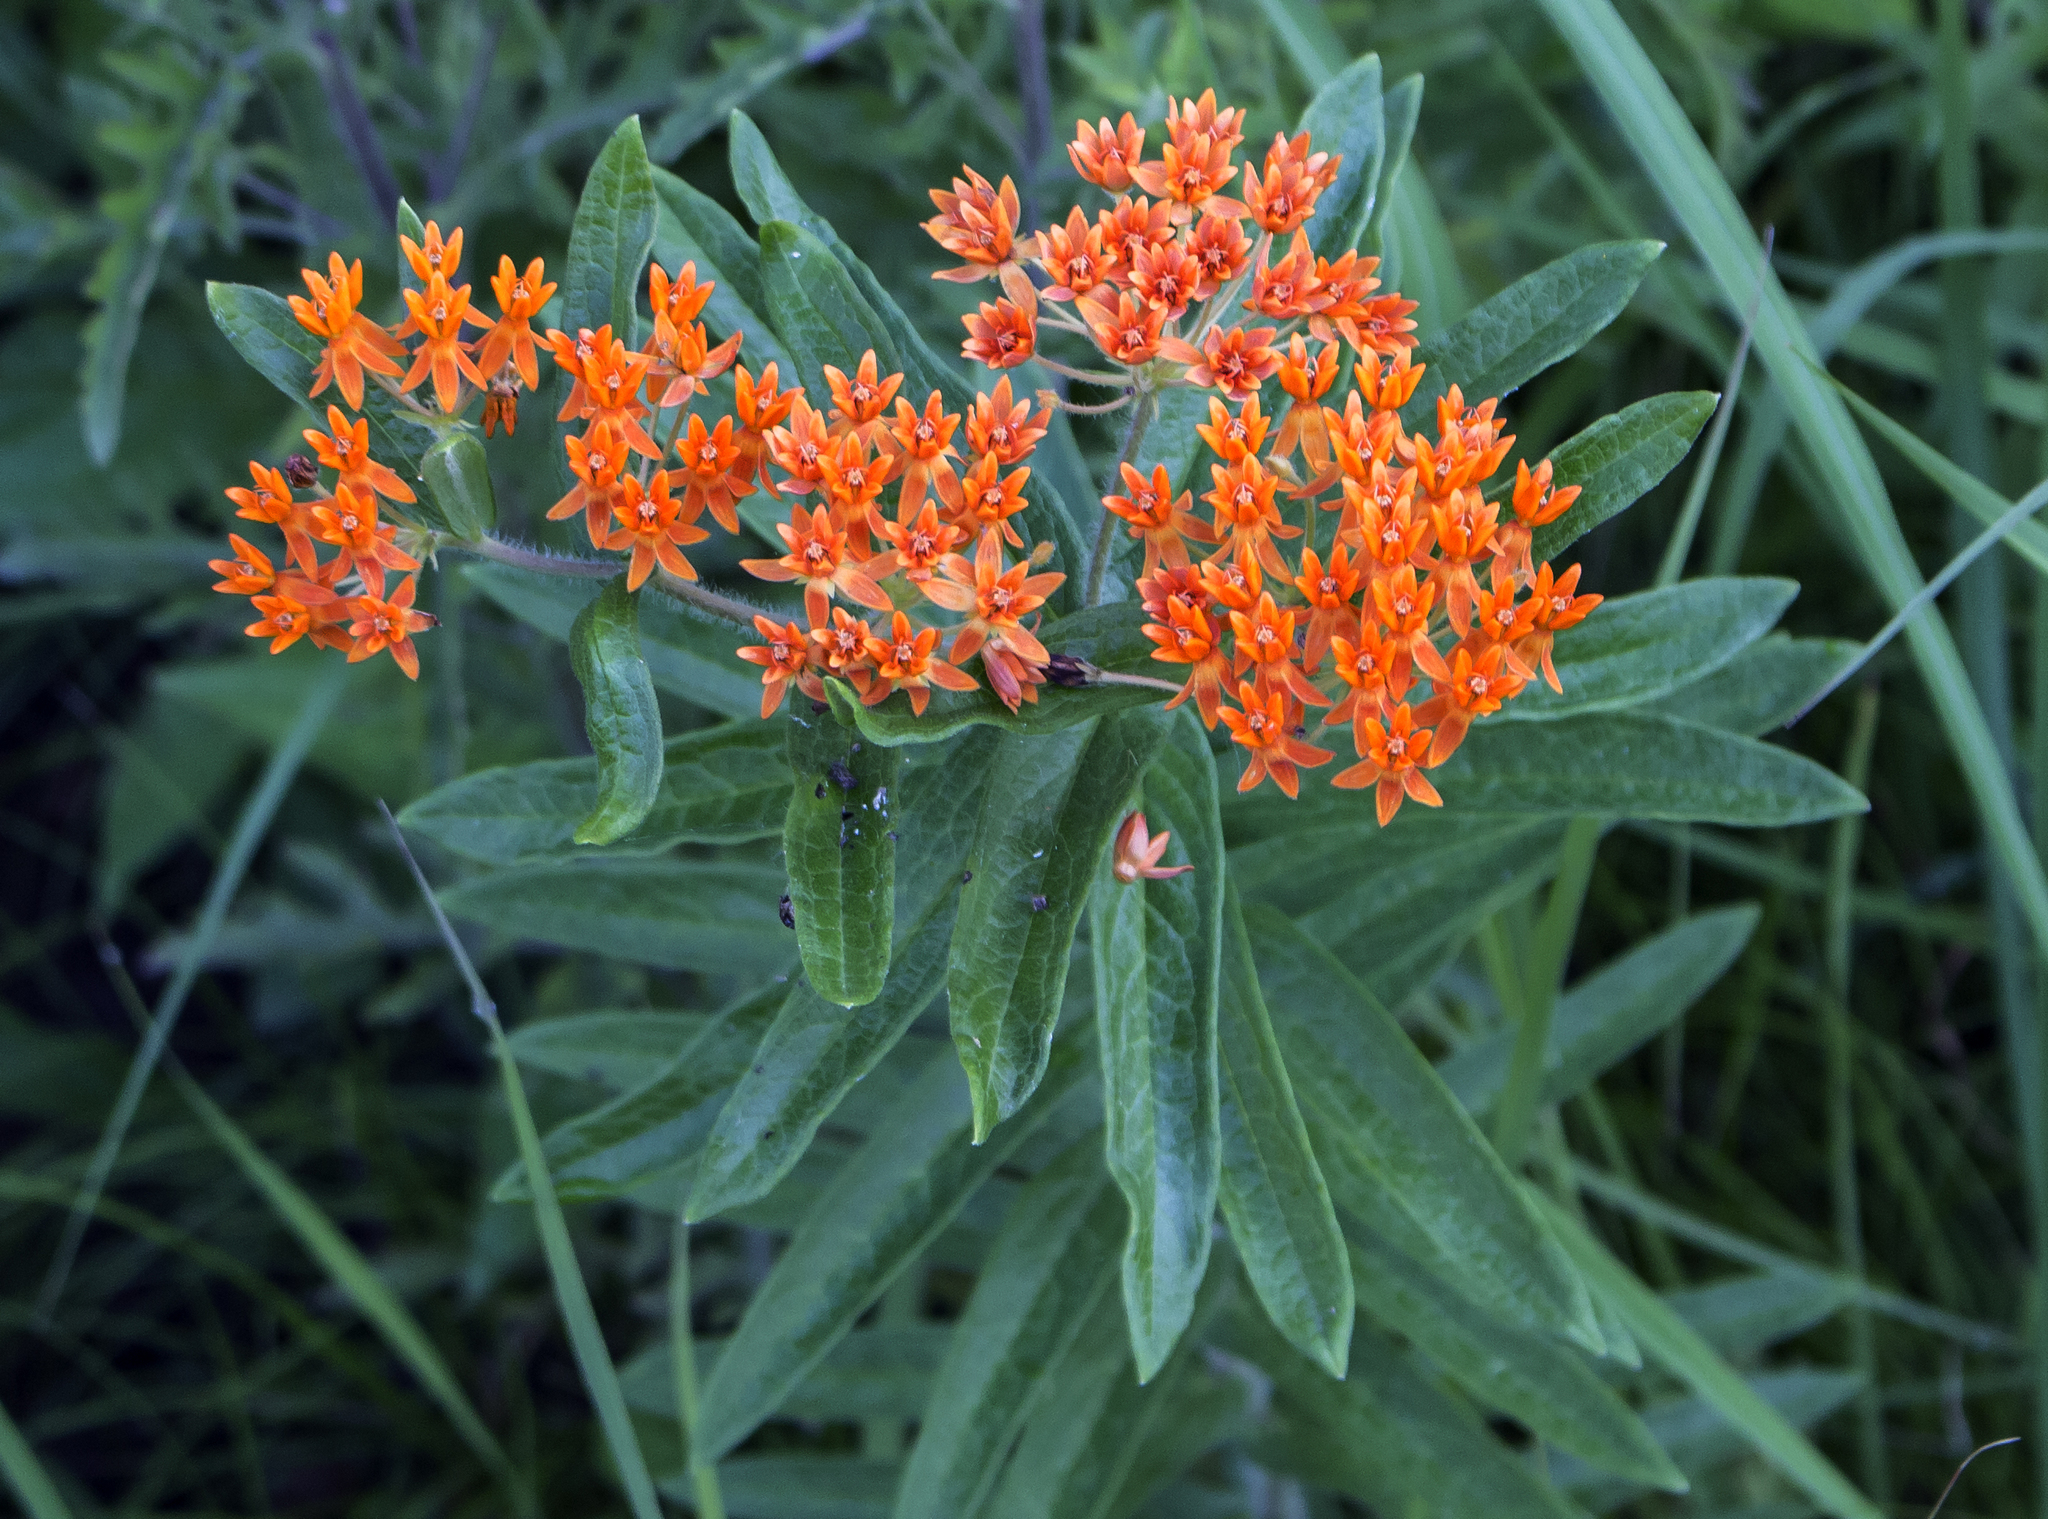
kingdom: Plantae
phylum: Tracheophyta
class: Magnoliopsida
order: Gentianales
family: Apocynaceae
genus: Asclepias
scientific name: Asclepias tuberosa
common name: Butterfly milkweed
